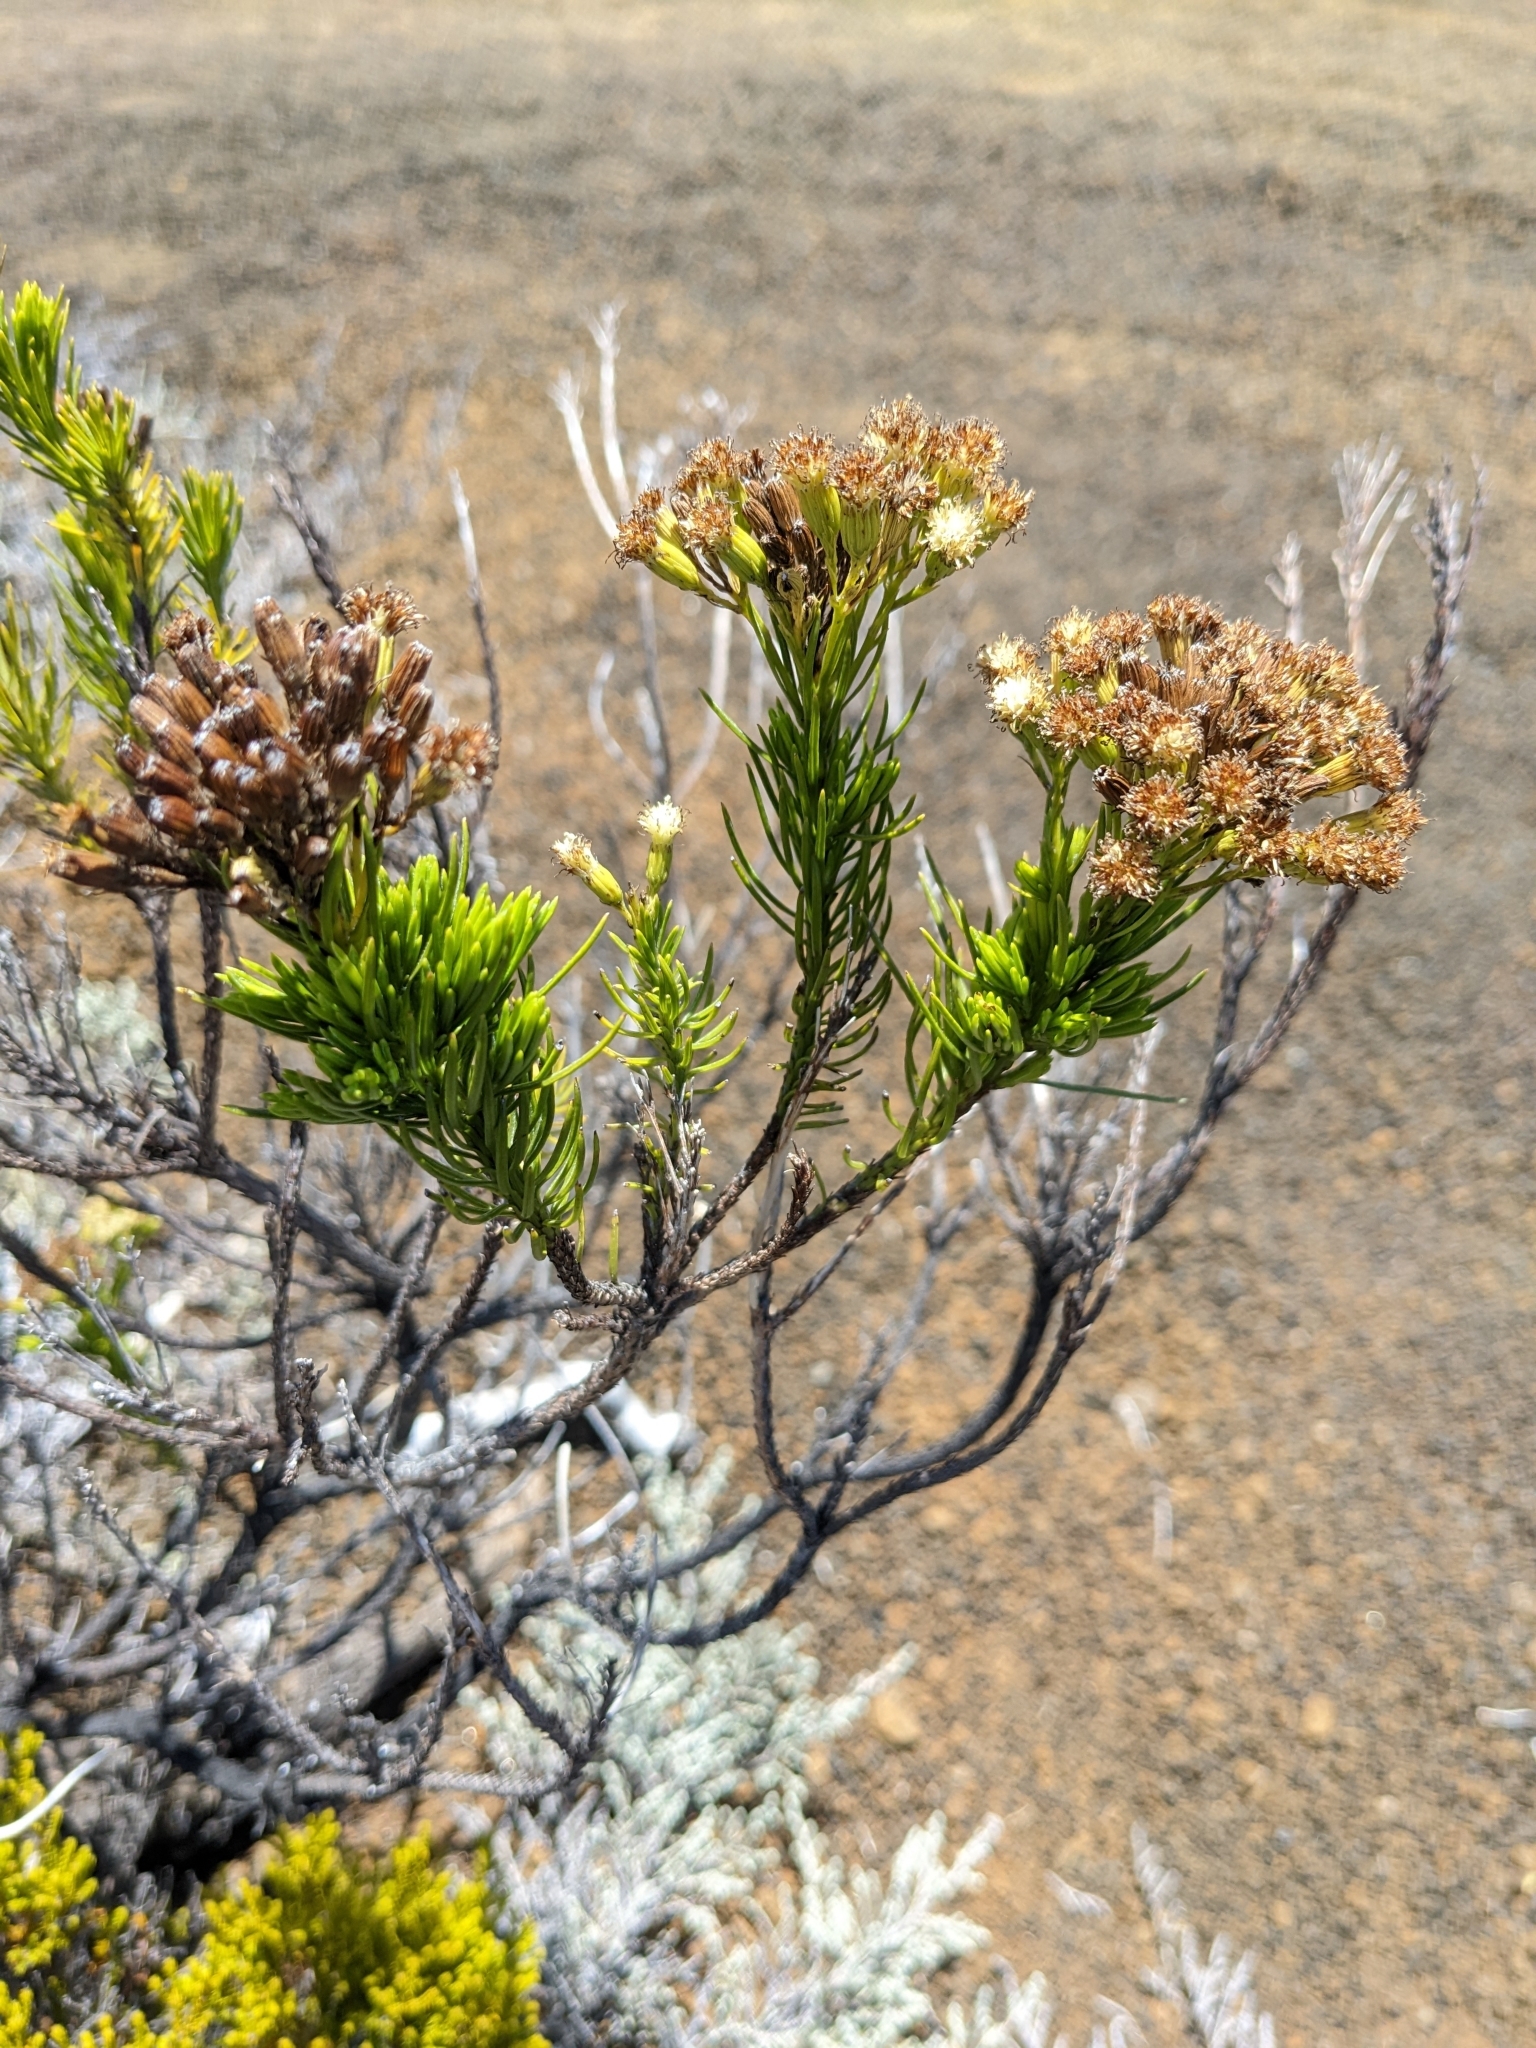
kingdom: Plantae
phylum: Tracheophyta
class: Magnoliopsida
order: Asterales
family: Asteraceae
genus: Eriothrix
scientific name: Eriothrix commersonii
